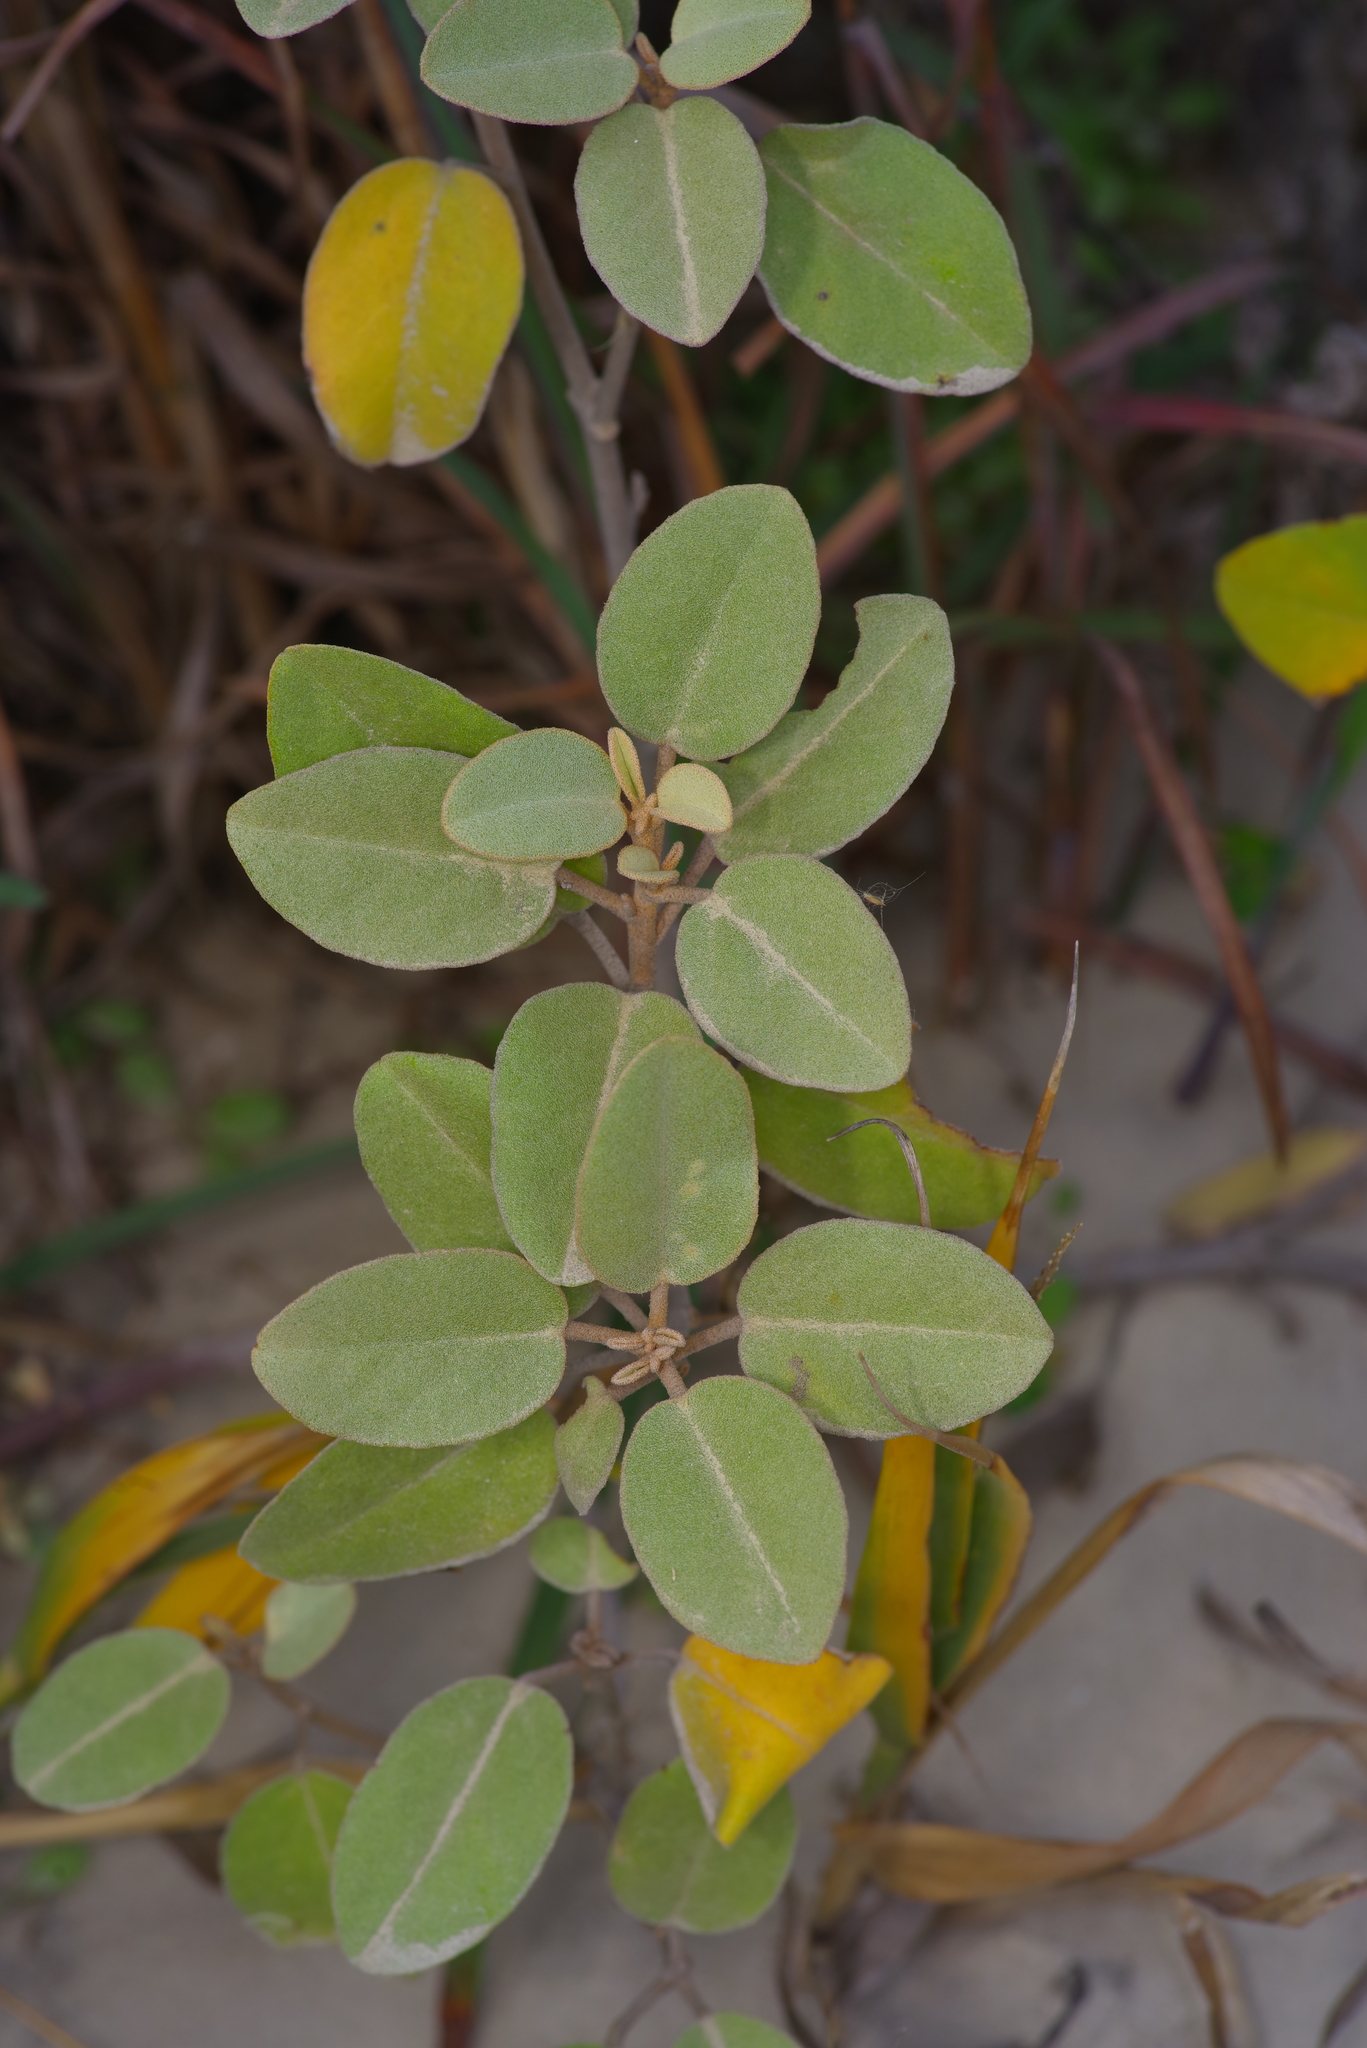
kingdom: Plantae
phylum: Tracheophyta
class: Magnoliopsida
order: Malpighiales
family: Euphorbiaceae
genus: Croton
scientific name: Croton punctatus
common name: Beach-tea
